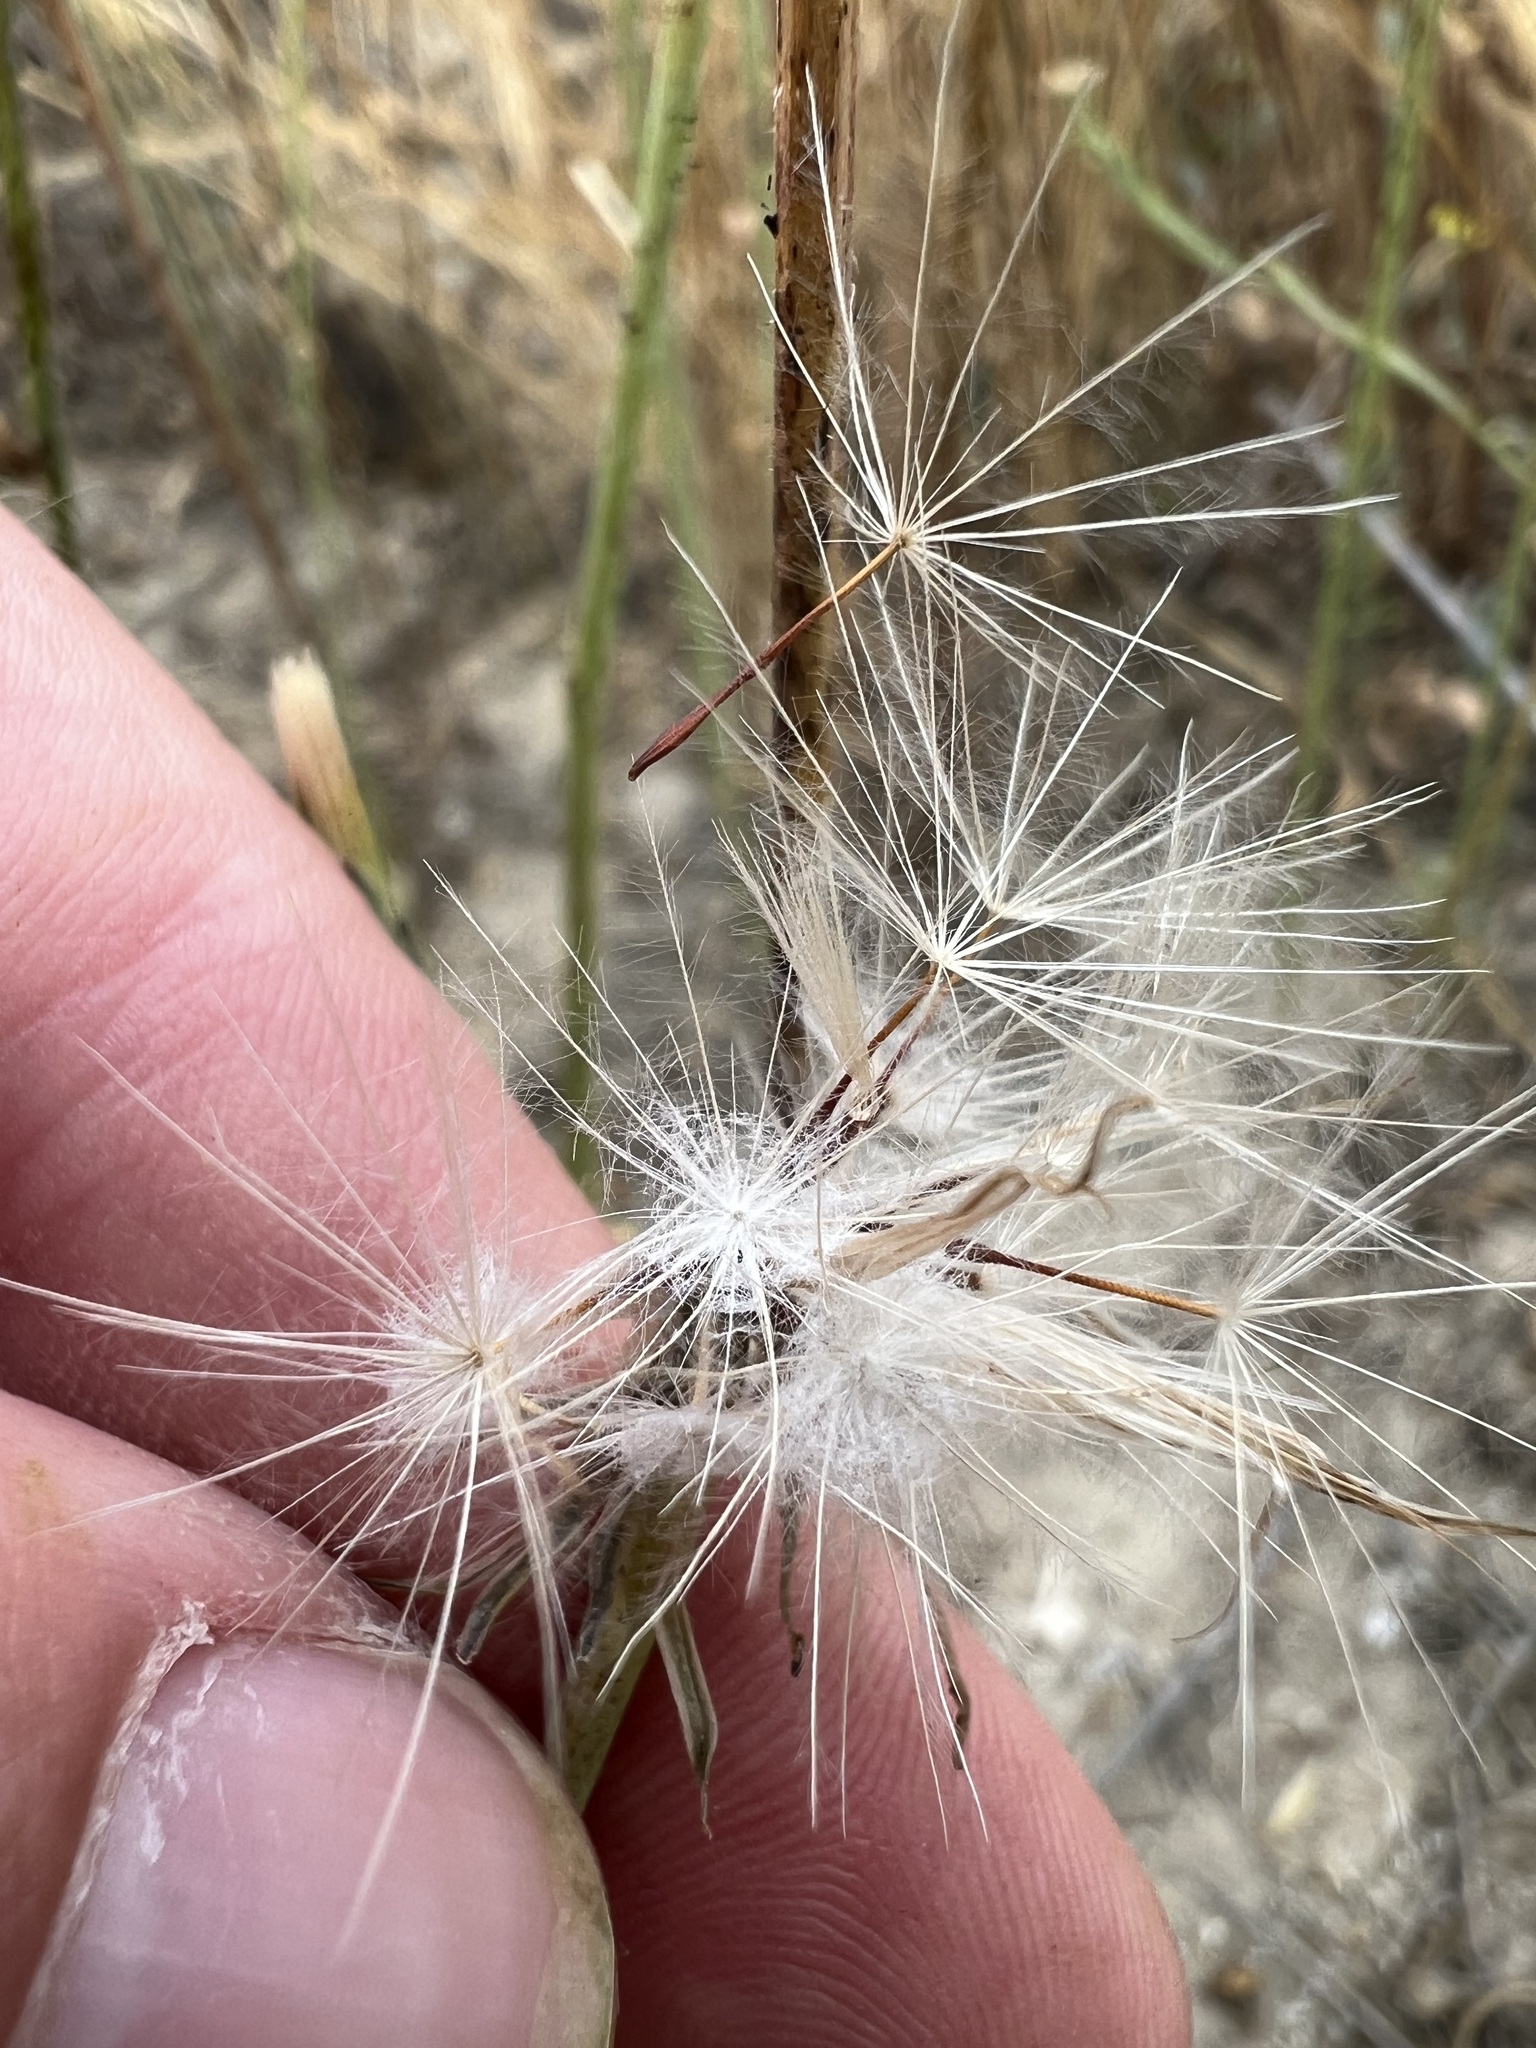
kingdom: Plantae
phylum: Tracheophyta
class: Magnoliopsida
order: Asterales
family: Asteraceae
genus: Hypochaeris
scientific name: Hypochaeris glabra
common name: Smooth catsear
